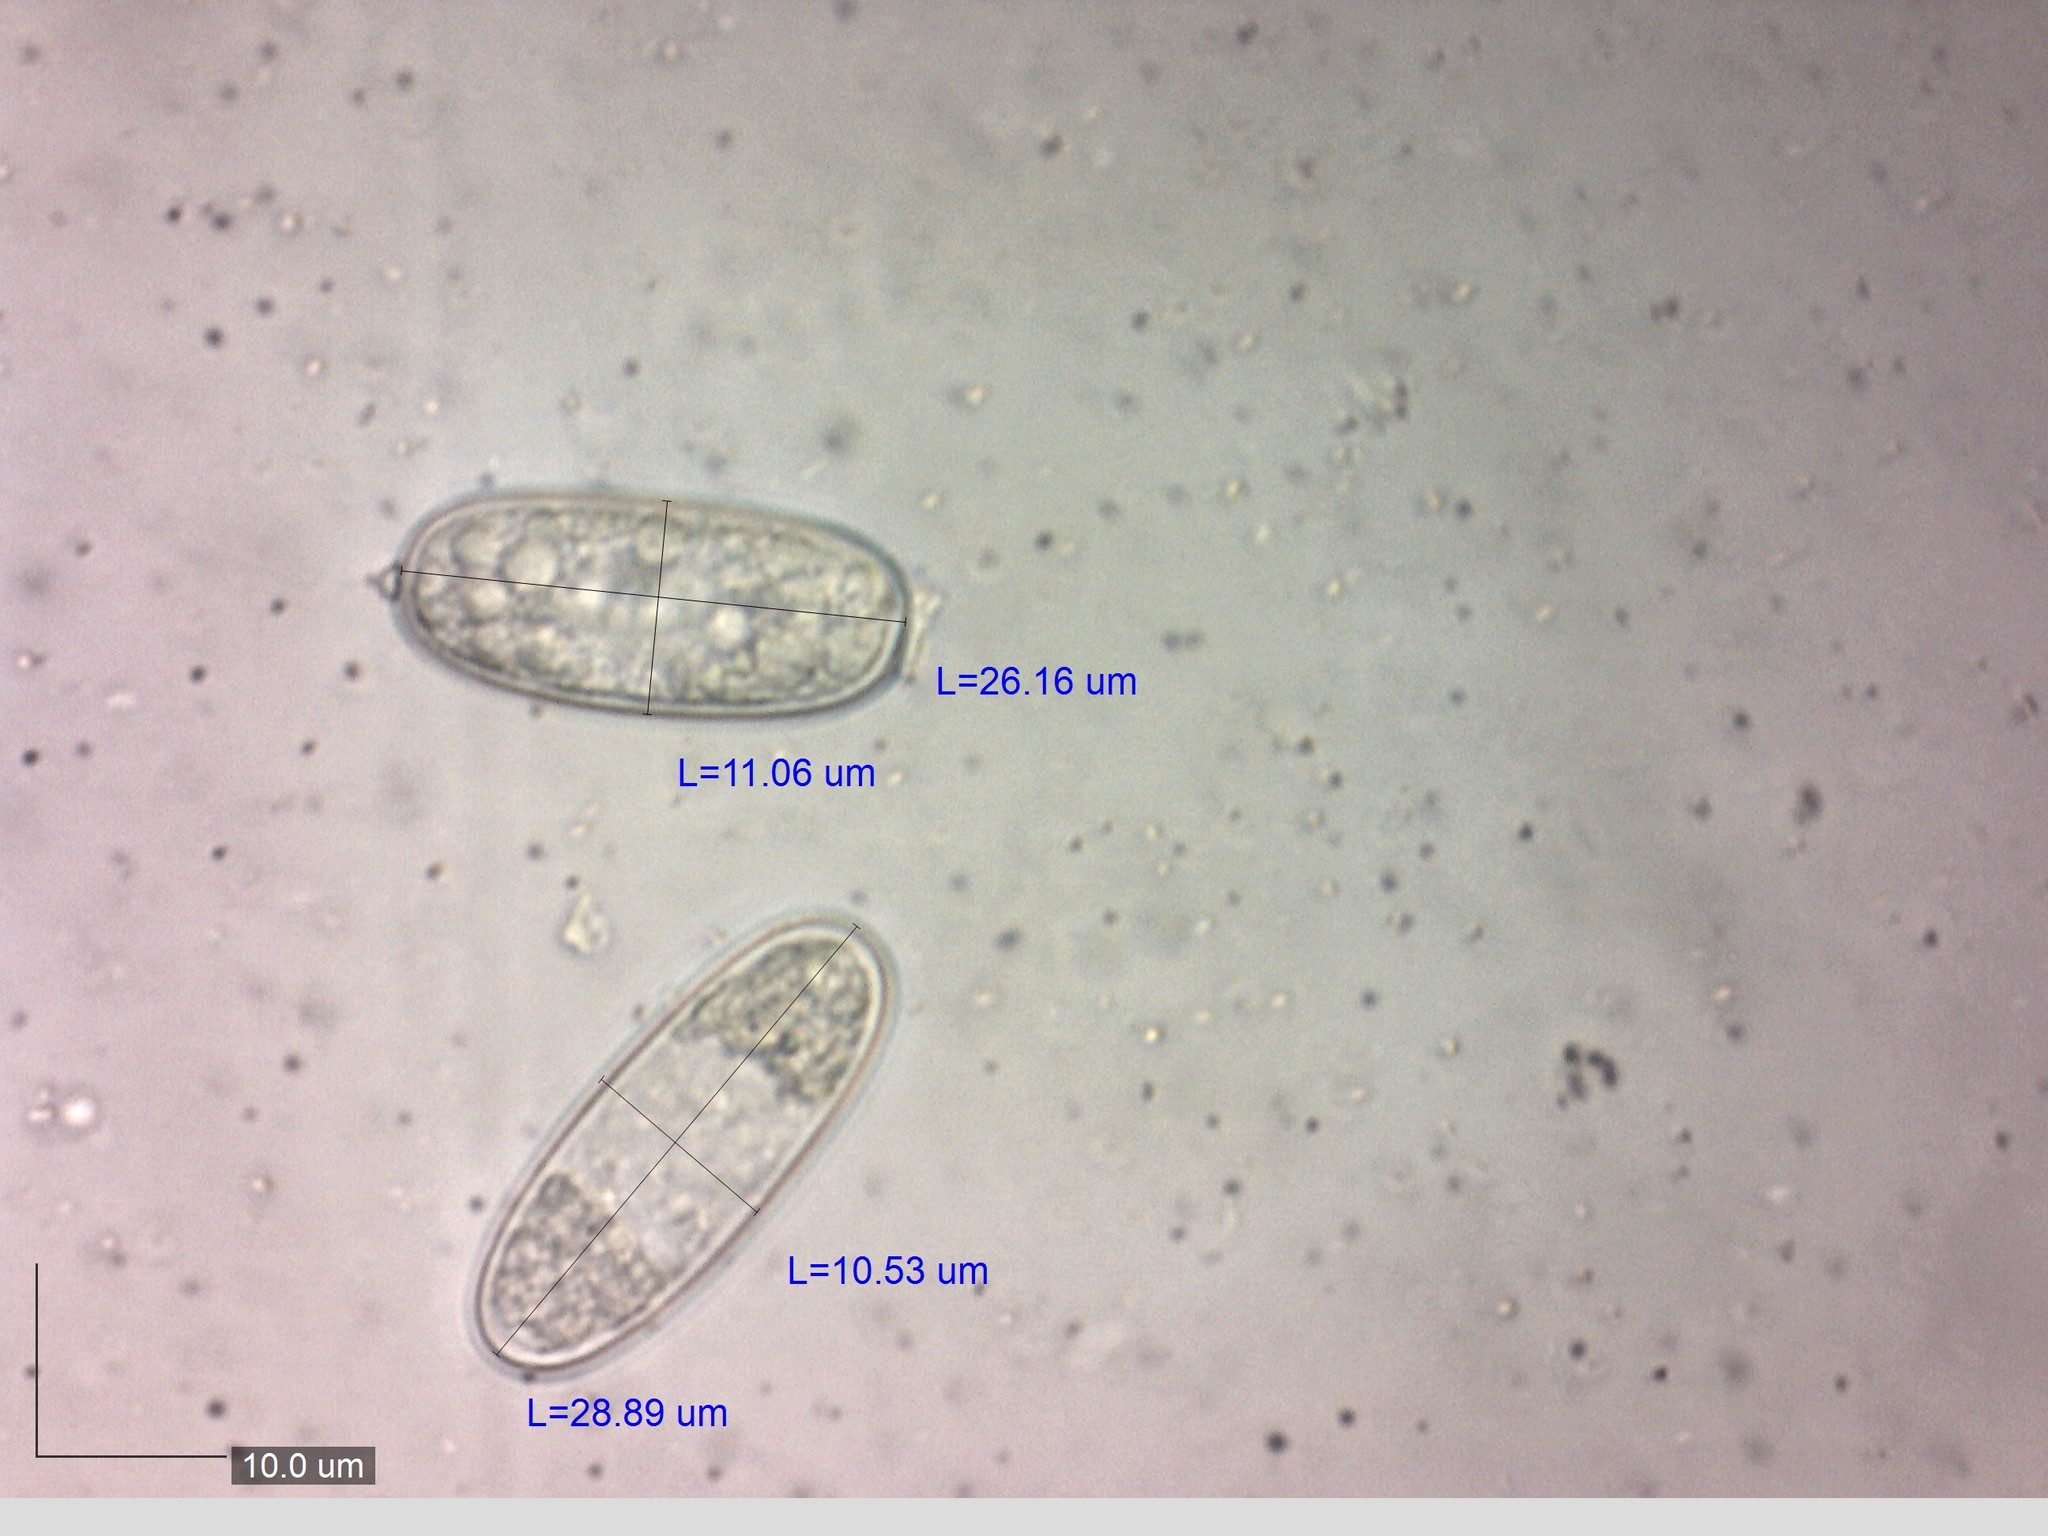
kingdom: Fungi
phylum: Ascomycota
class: Pezizomycetes
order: Pezizales
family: Sarcoscyphaceae
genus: Sarcoscypha
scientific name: Sarcoscypha austriaca
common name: Scarlet elfcup
